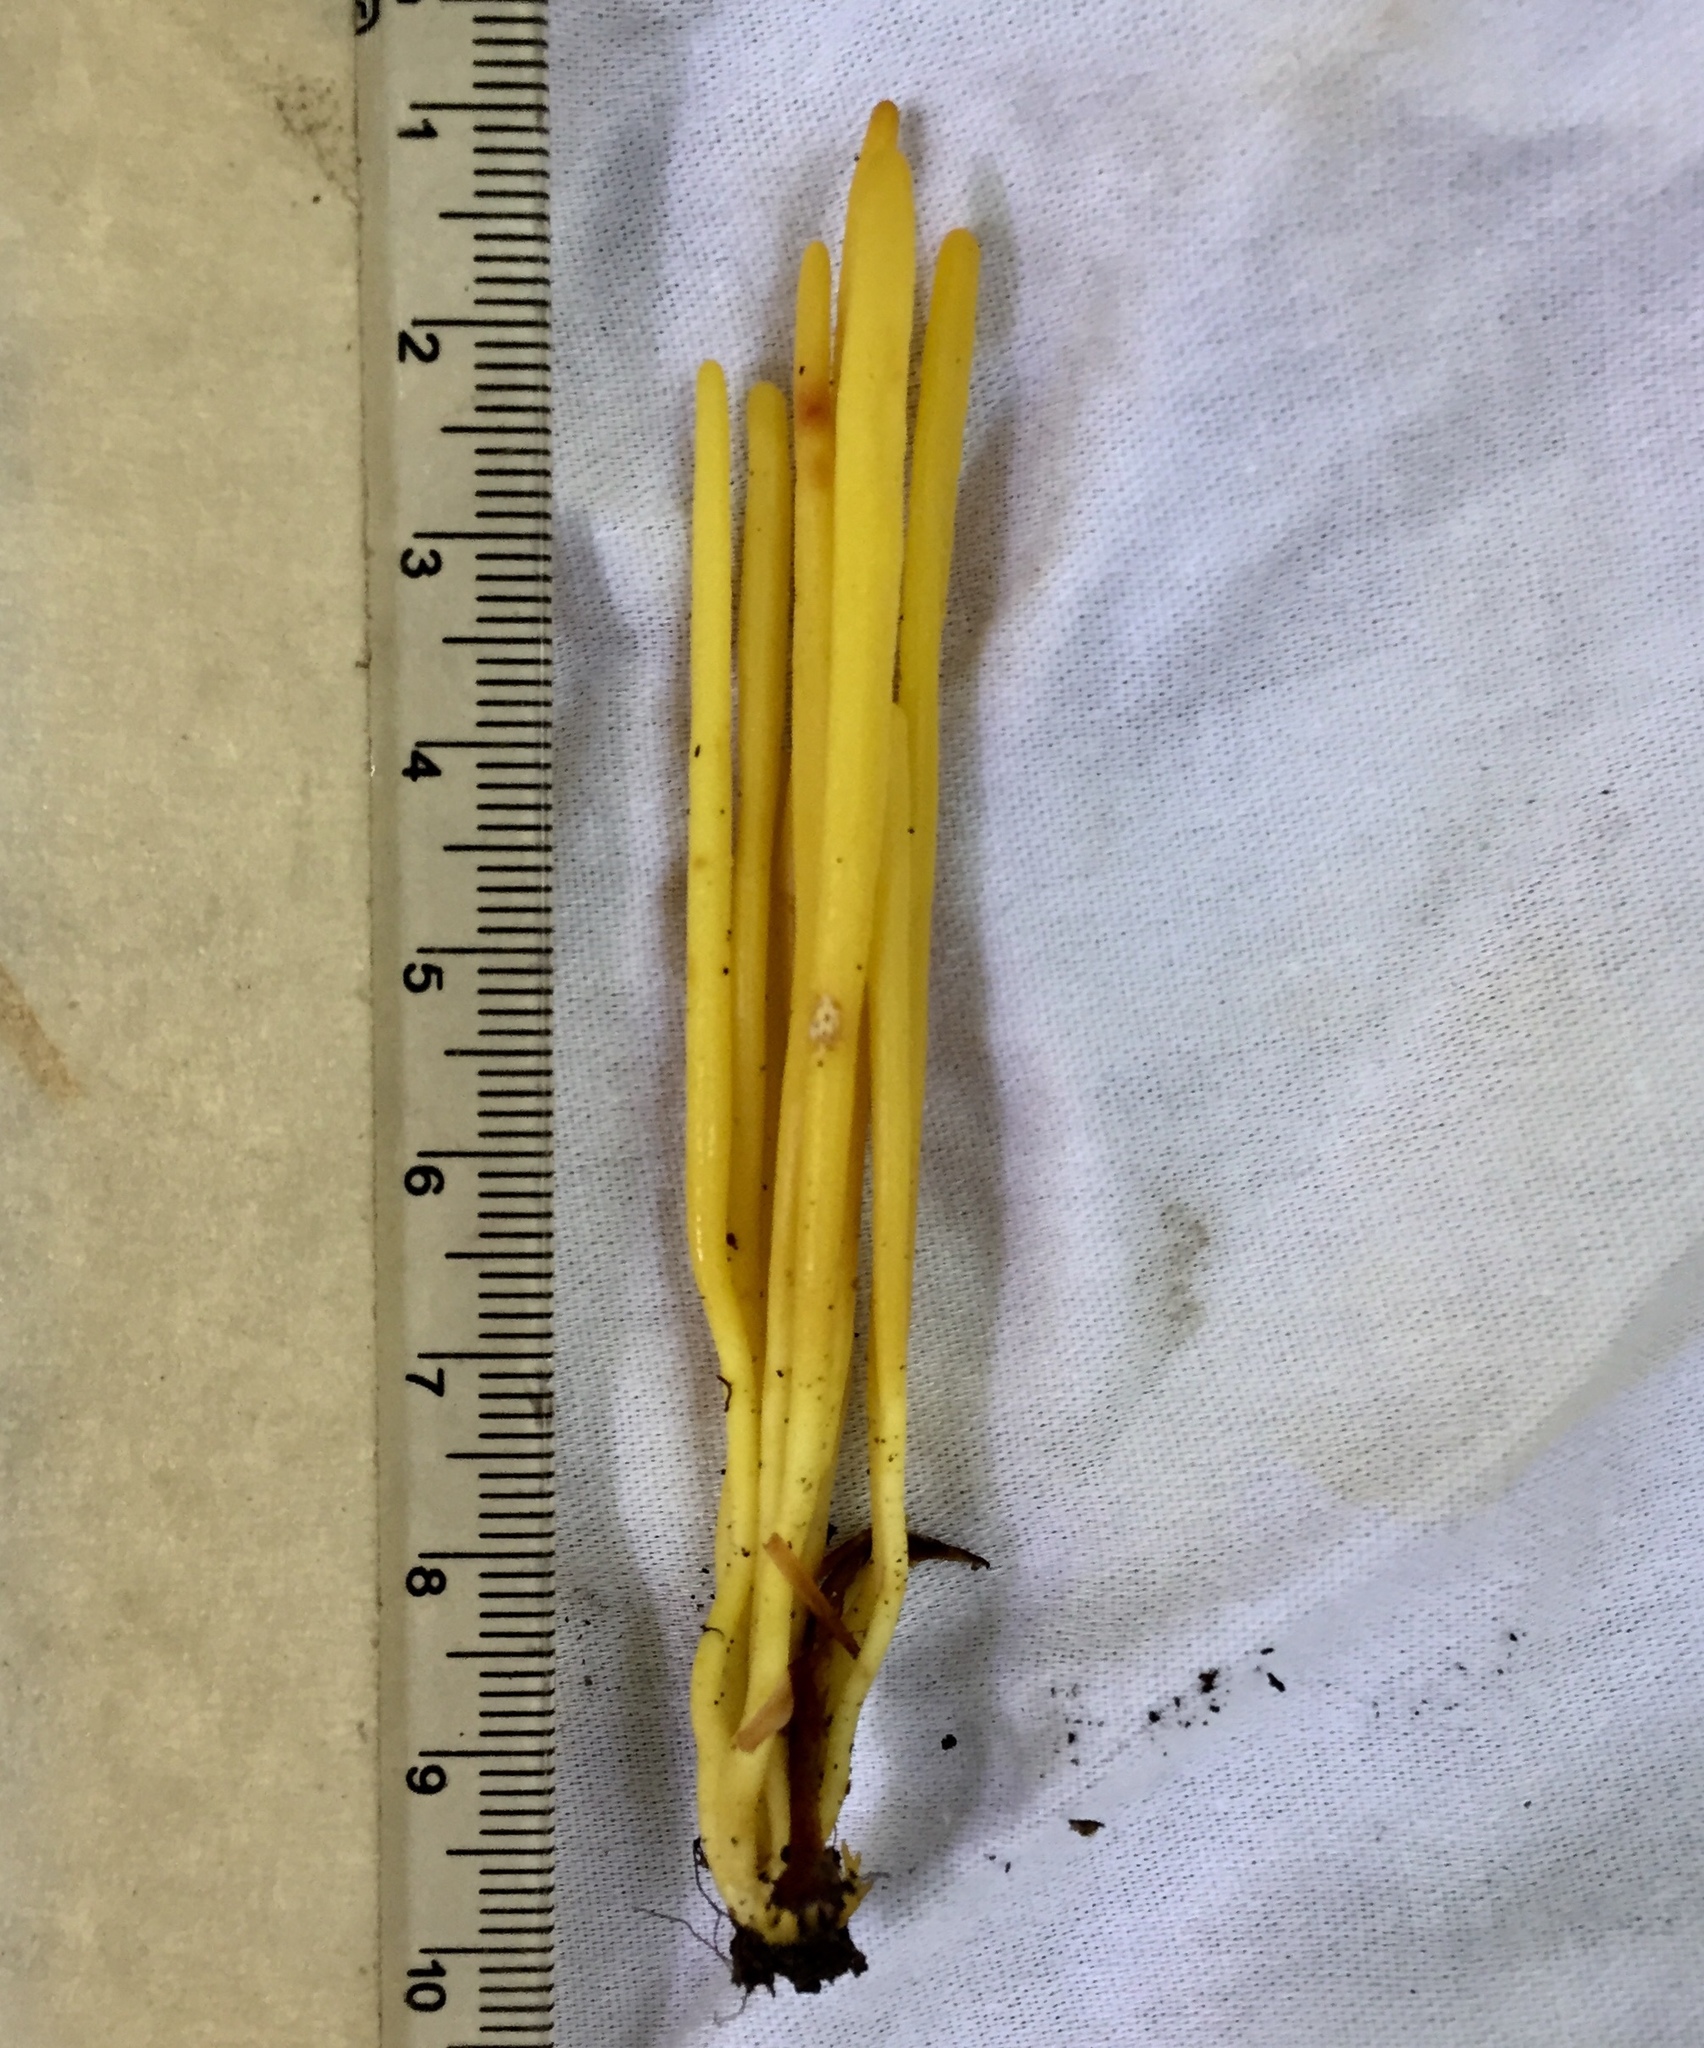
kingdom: Fungi
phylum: Basidiomycota
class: Agaricomycetes
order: Agaricales
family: Clavariaceae
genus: Clavulinopsis
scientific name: Clavulinopsis fusiformis
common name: Golden spindles
